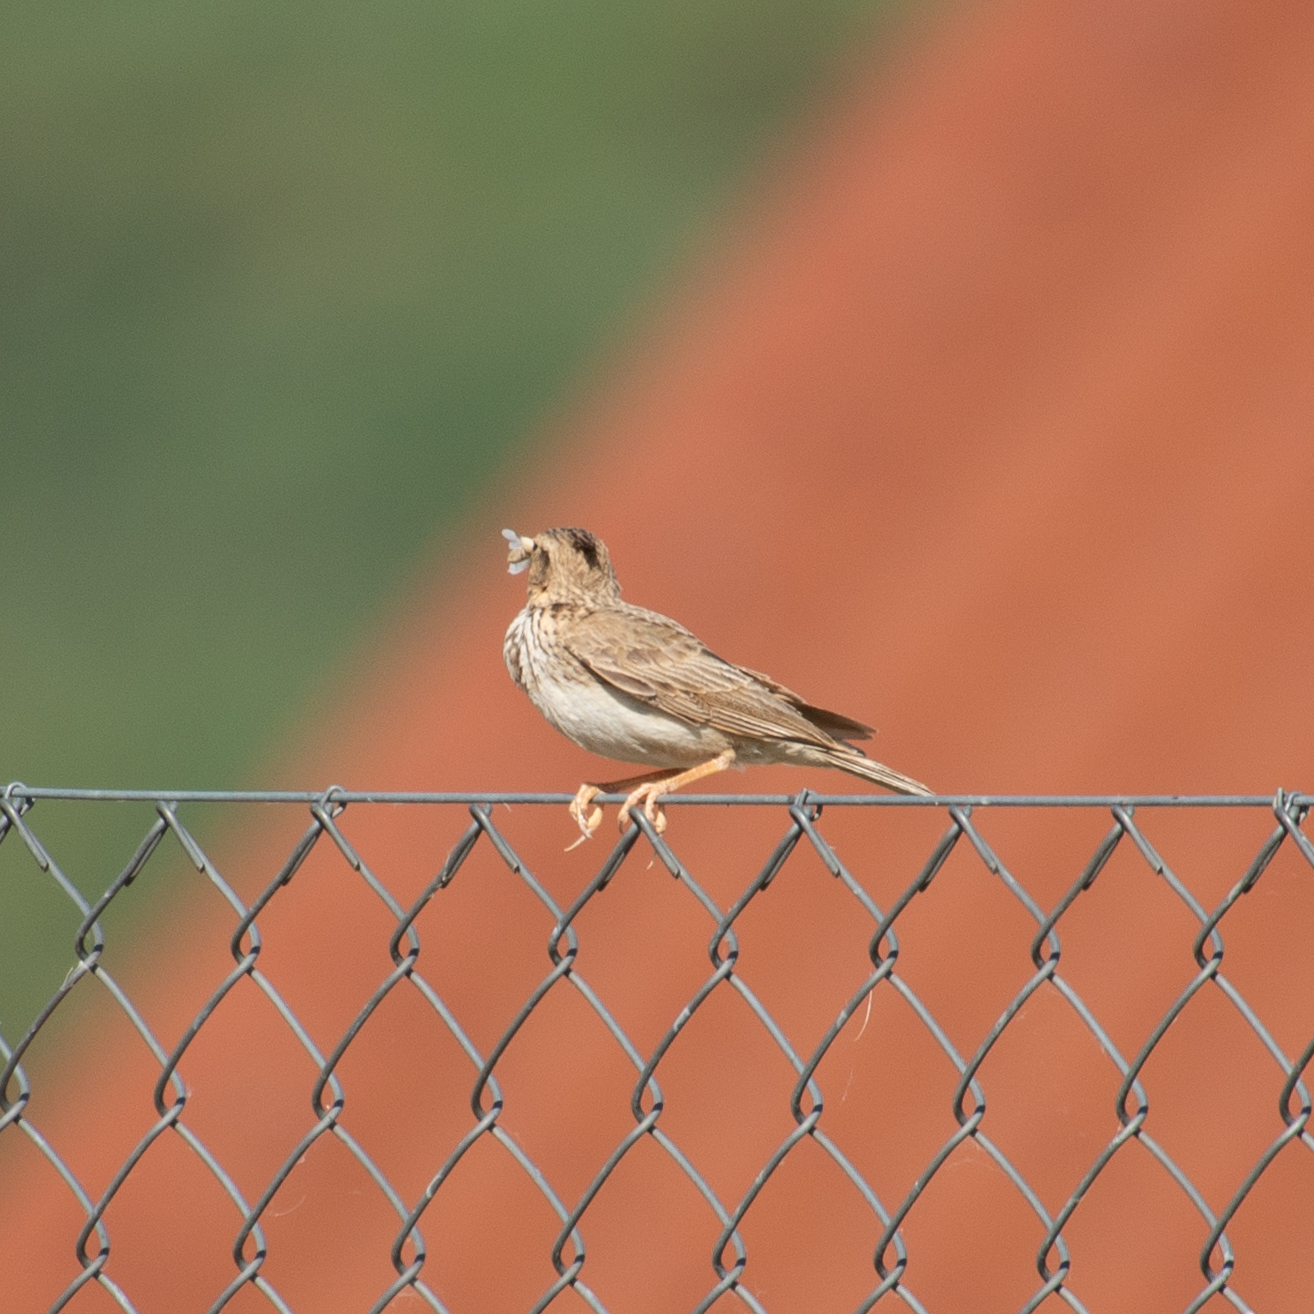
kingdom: Animalia
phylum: Chordata
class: Aves
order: Passeriformes
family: Alaudidae
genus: Galerida
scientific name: Galerida cristata
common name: Crested lark
